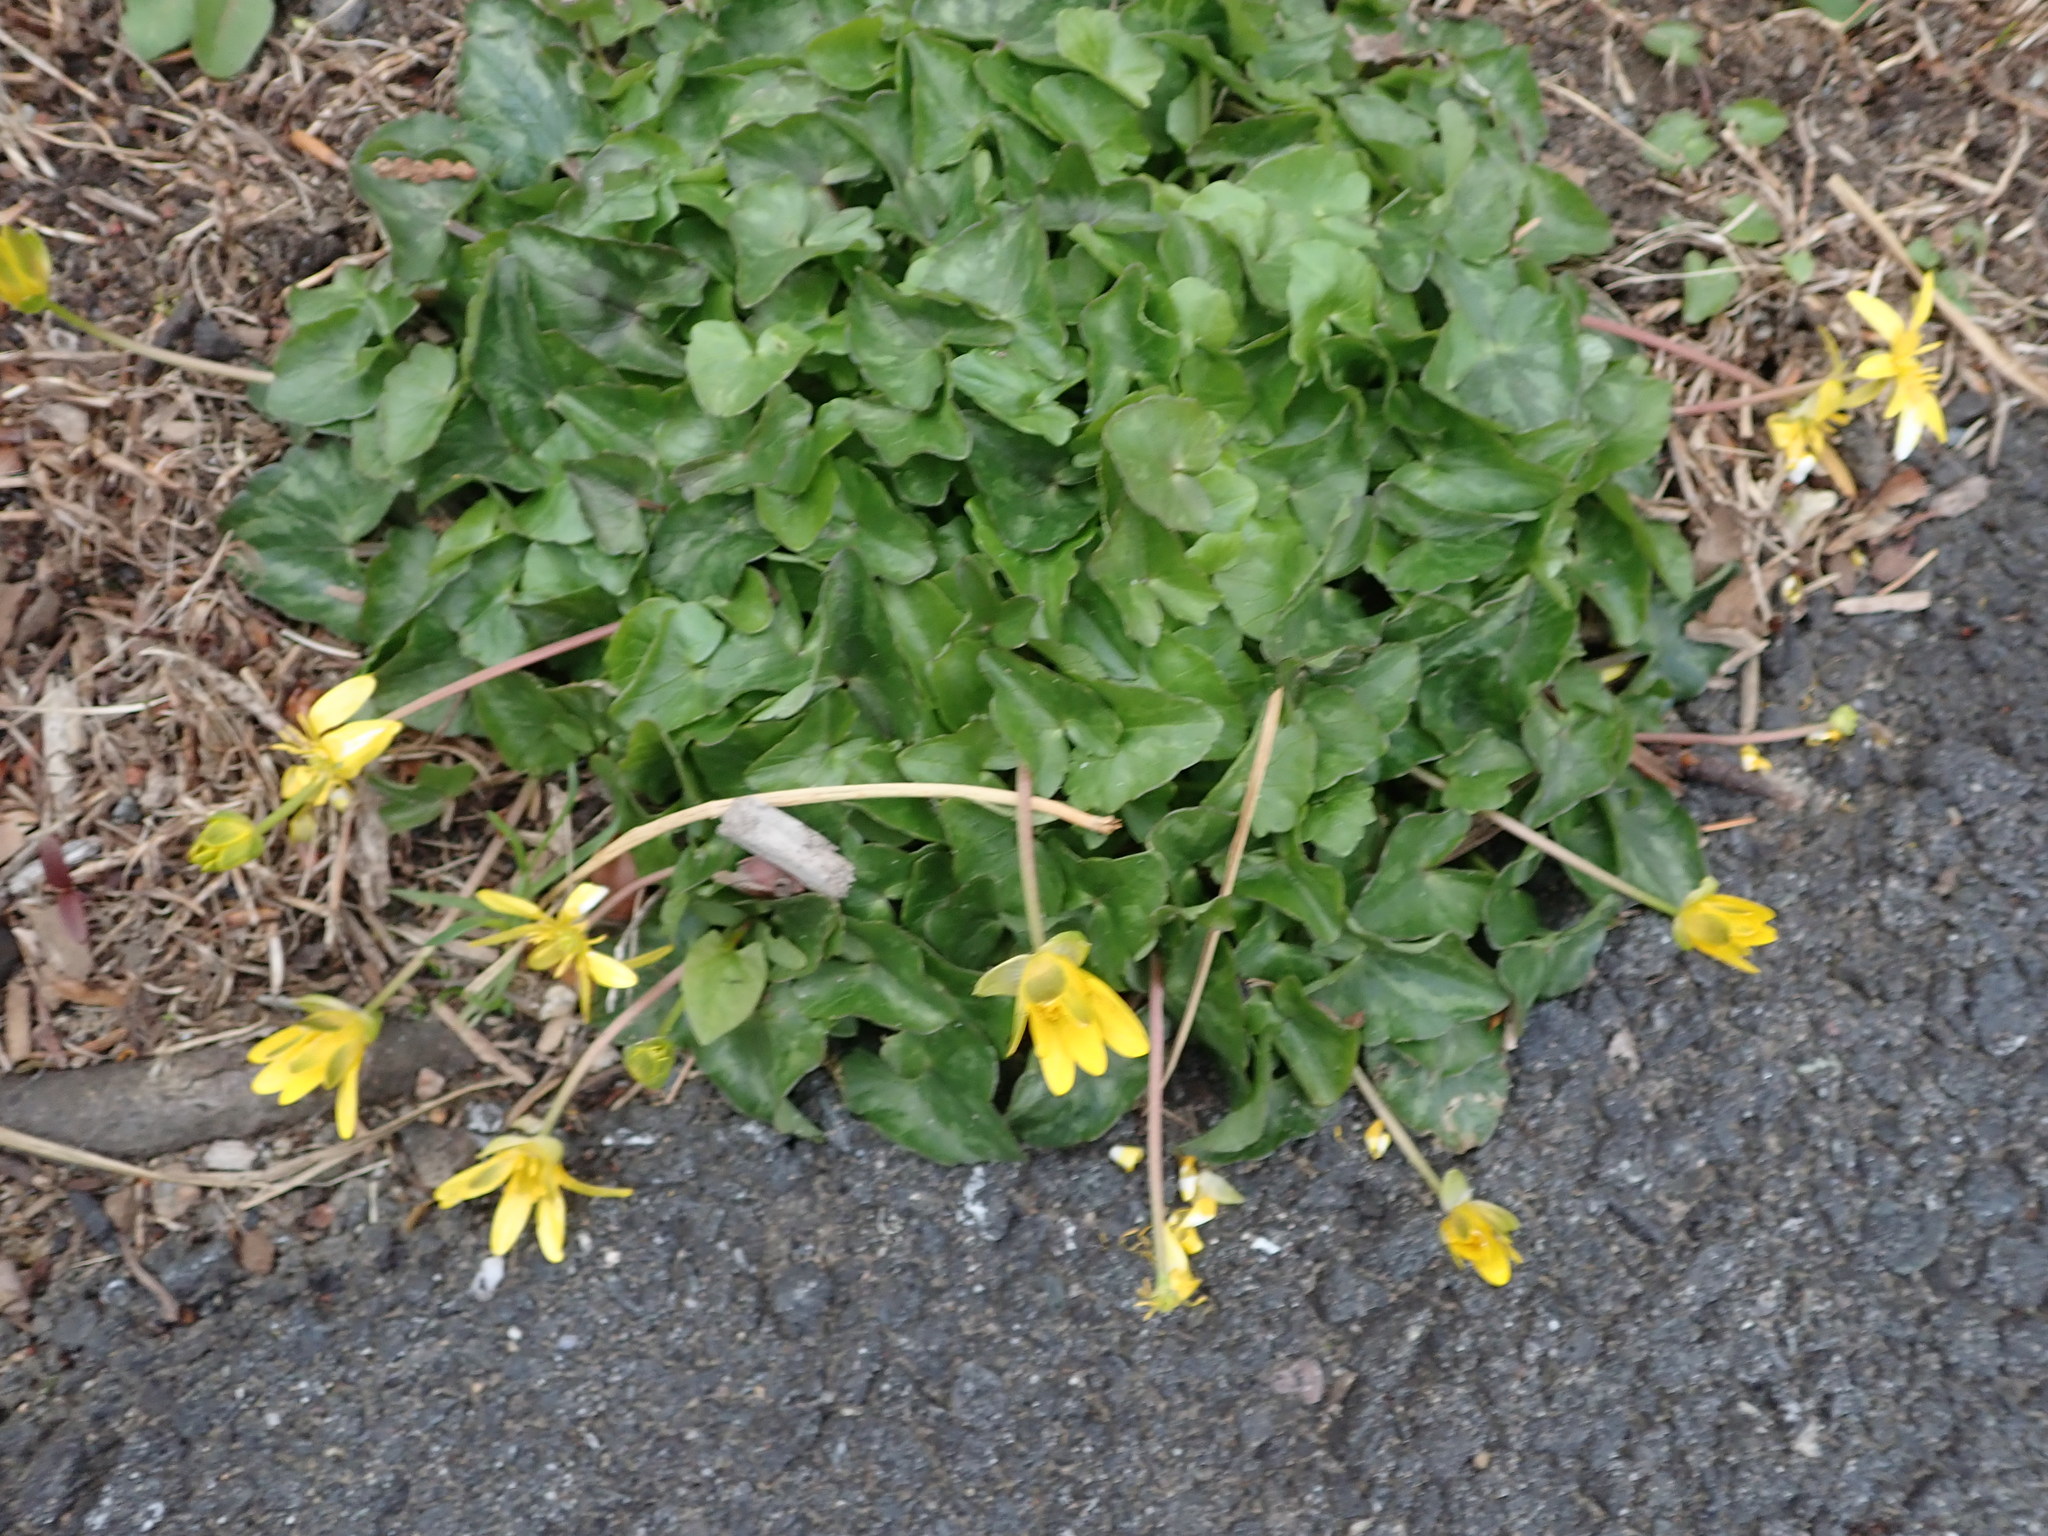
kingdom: Plantae
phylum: Tracheophyta
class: Magnoliopsida
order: Ranunculales
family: Ranunculaceae
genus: Ficaria
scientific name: Ficaria verna
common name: Lesser celandine
